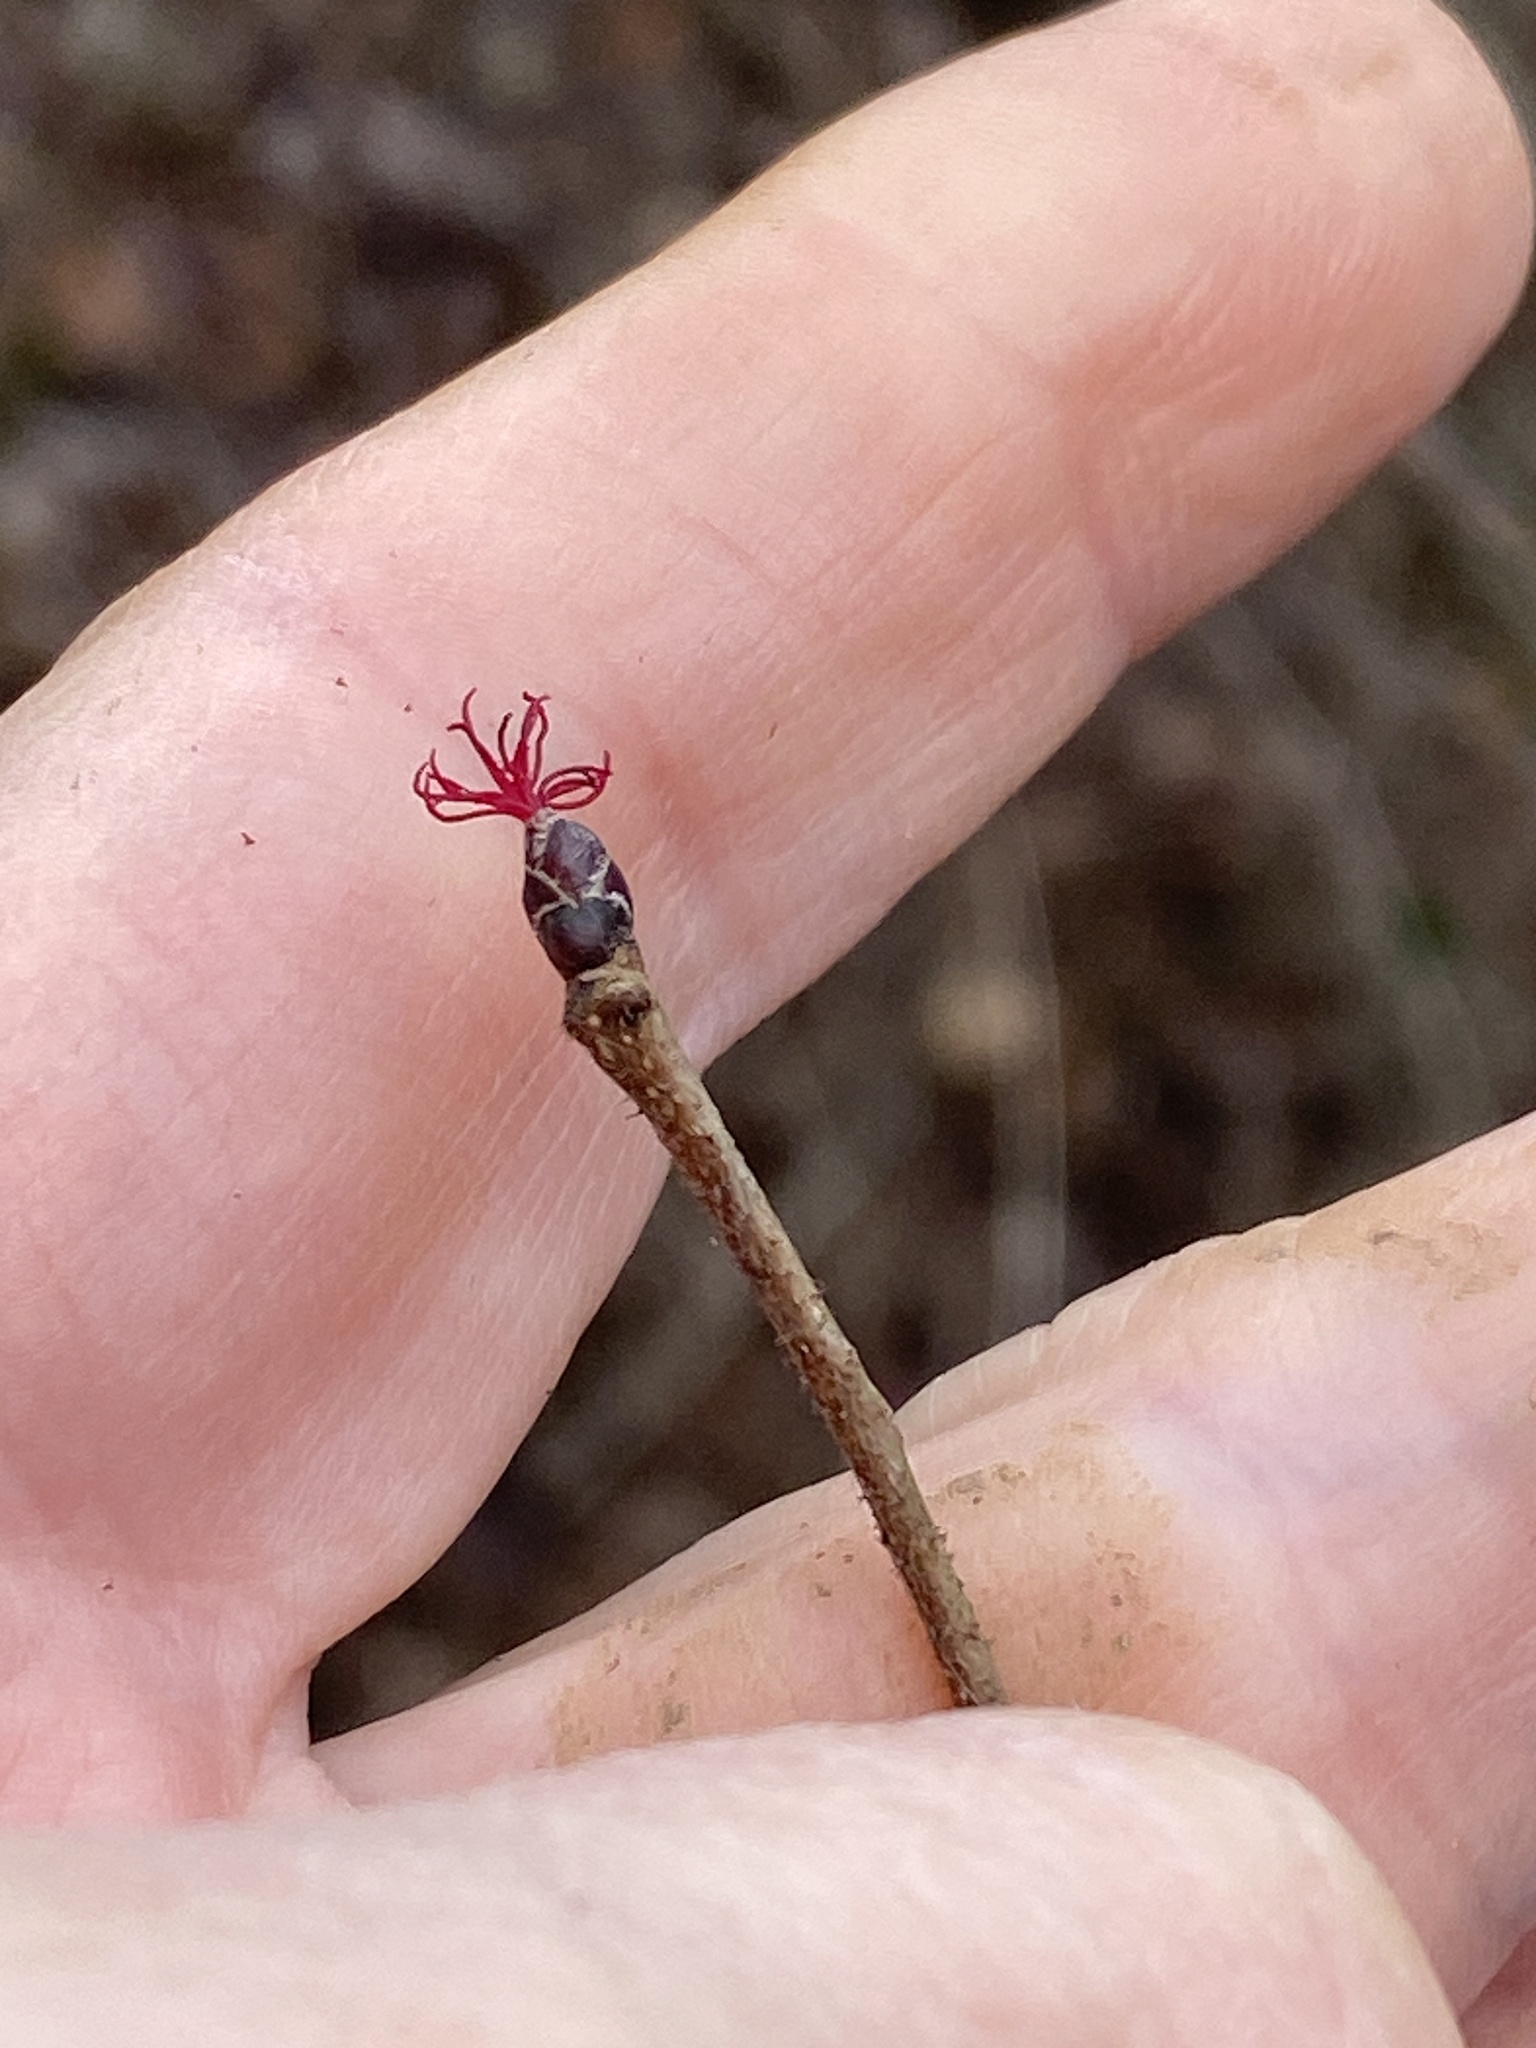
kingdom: Plantae
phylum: Tracheophyta
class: Magnoliopsida
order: Fagales
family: Betulaceae
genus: Corylus
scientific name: Corylus americana
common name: American hazel
